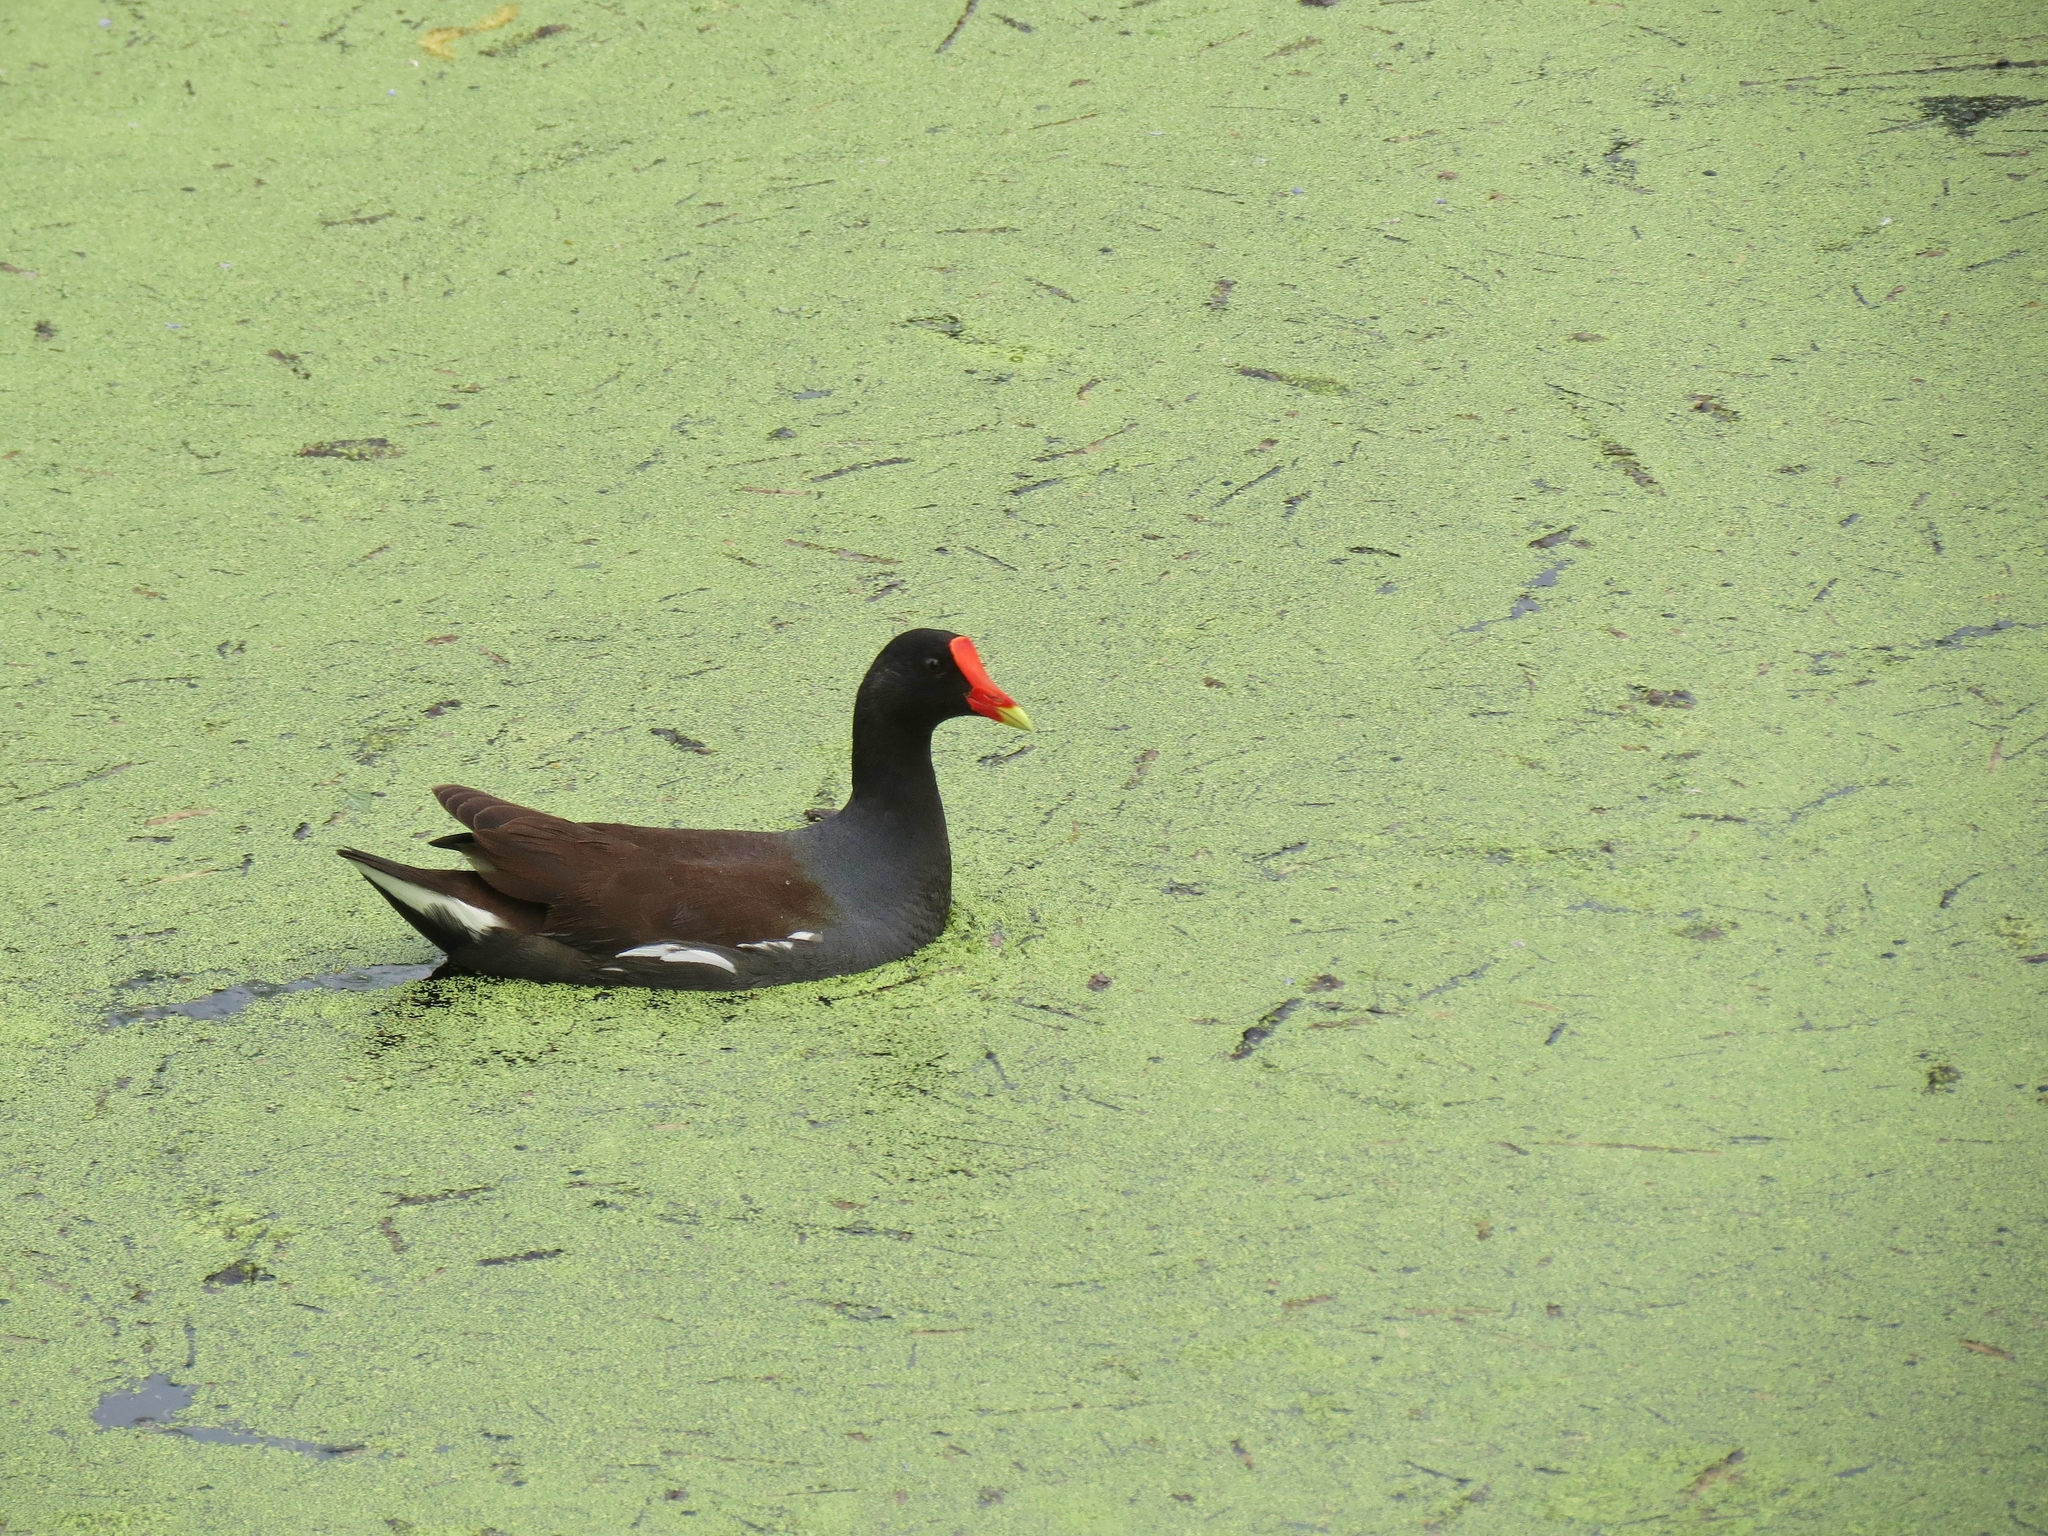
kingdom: Animalia
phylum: Chordata
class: Aves
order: Gruiformes
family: Rallidae
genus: Gallinula
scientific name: Gallinula chloropus
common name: Common moorhen
